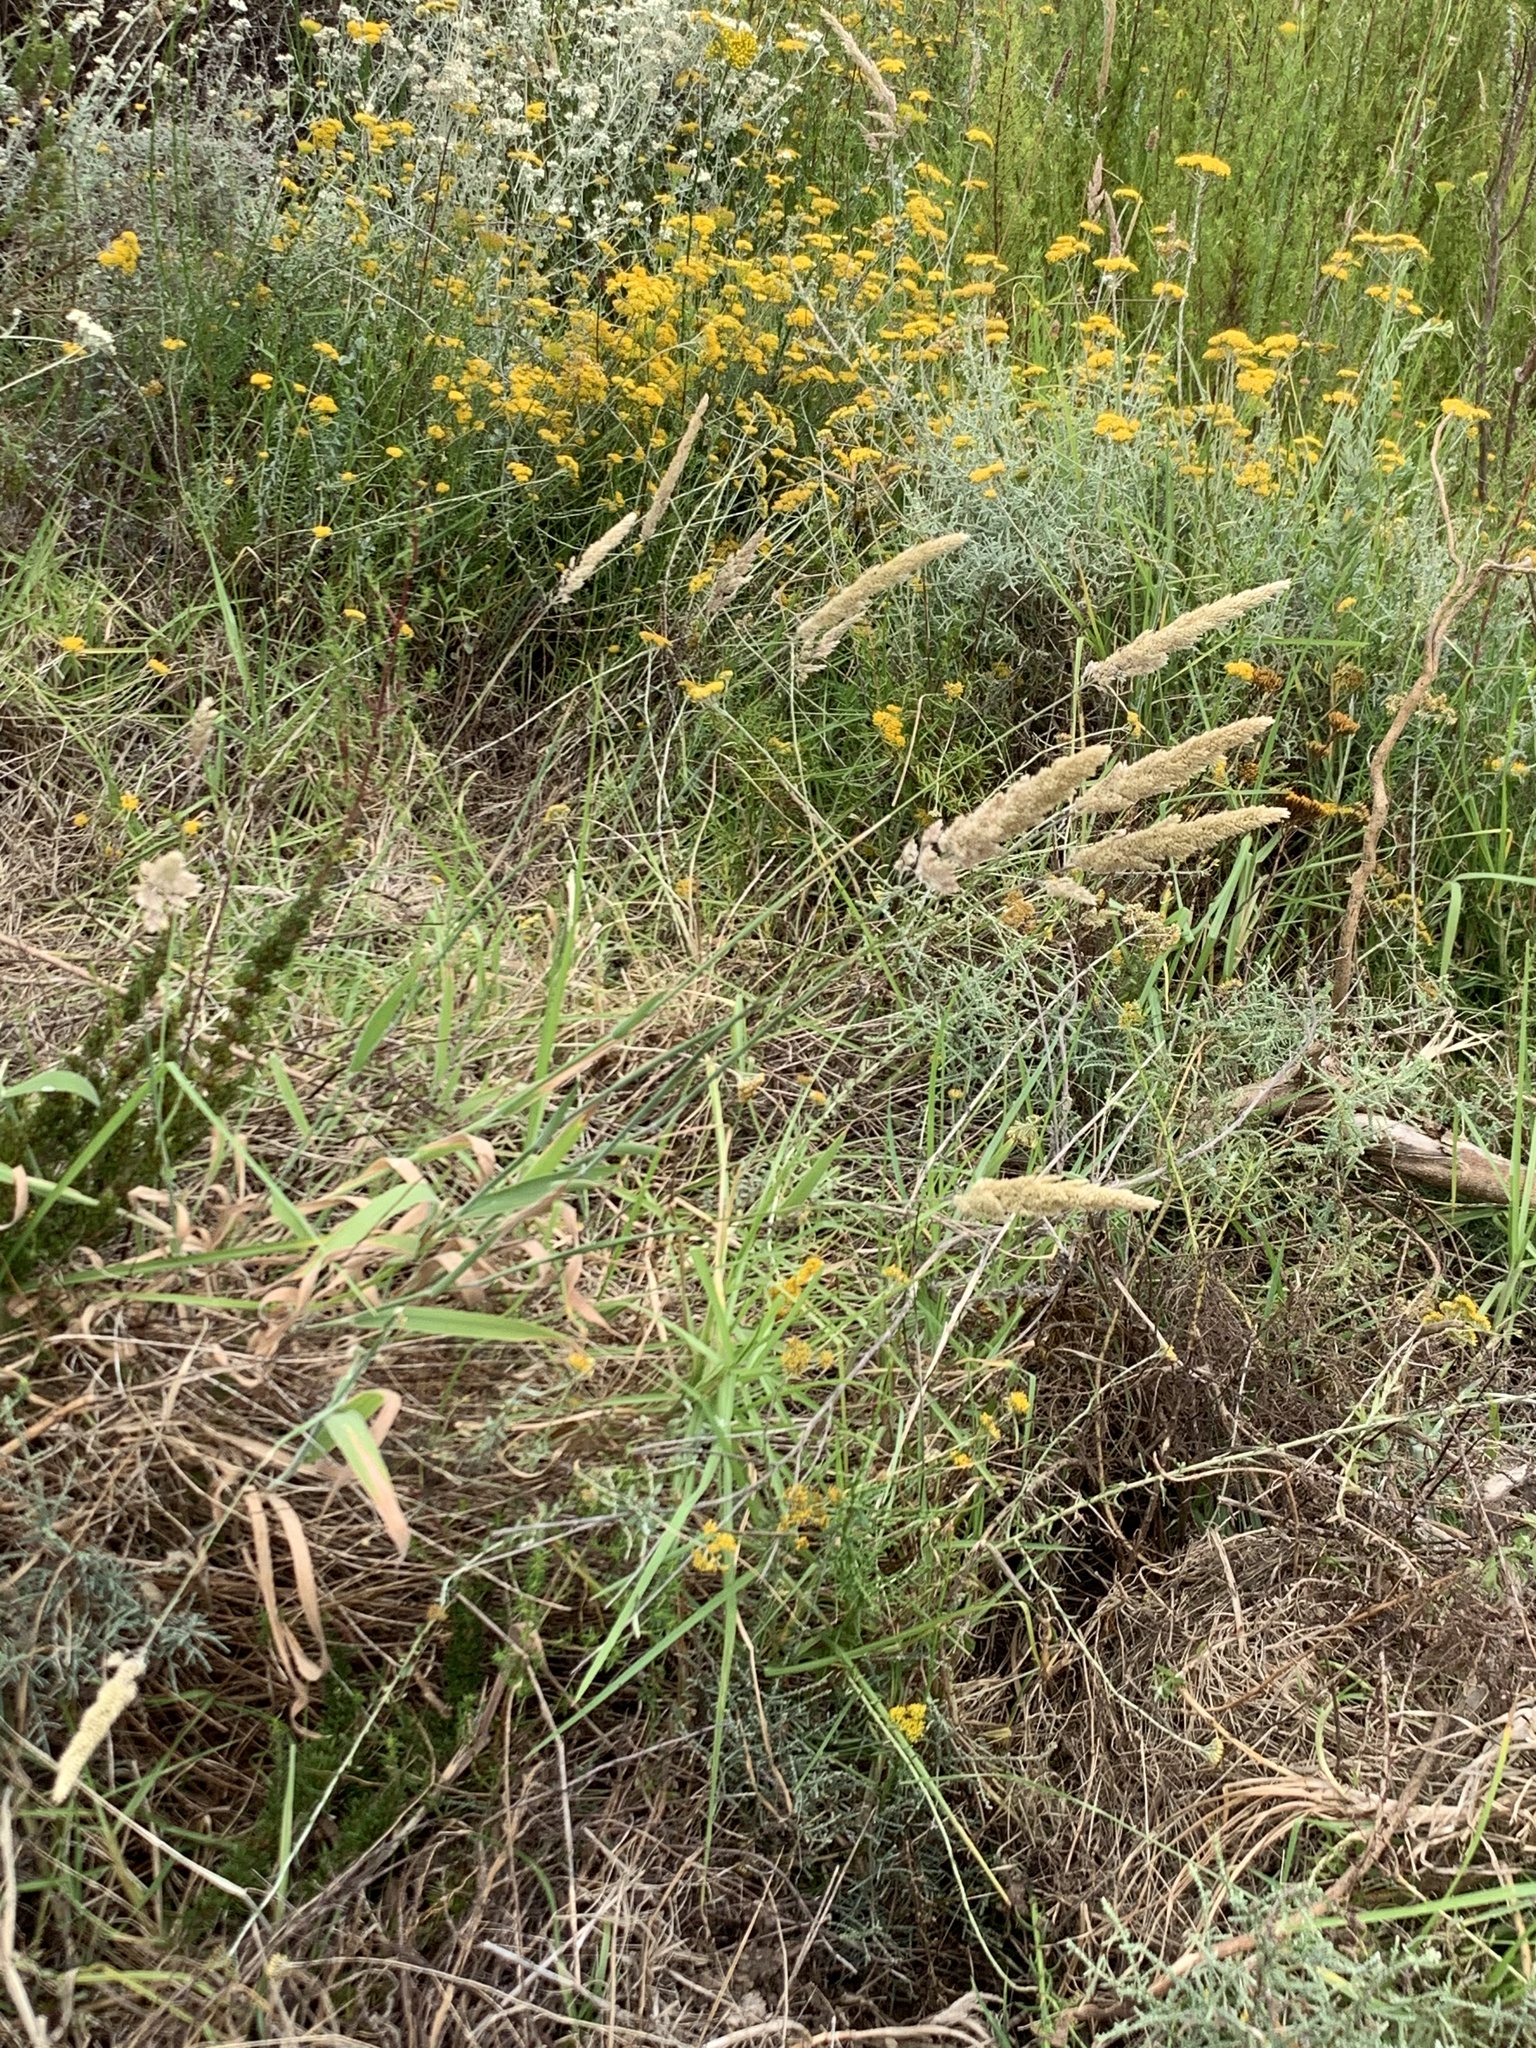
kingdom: Plantae
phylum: Tracheophyta
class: Liliopsida
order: Poales
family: Poaceae
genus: Holcus
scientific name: Holcus lanatus
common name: Yorkshire-fog
